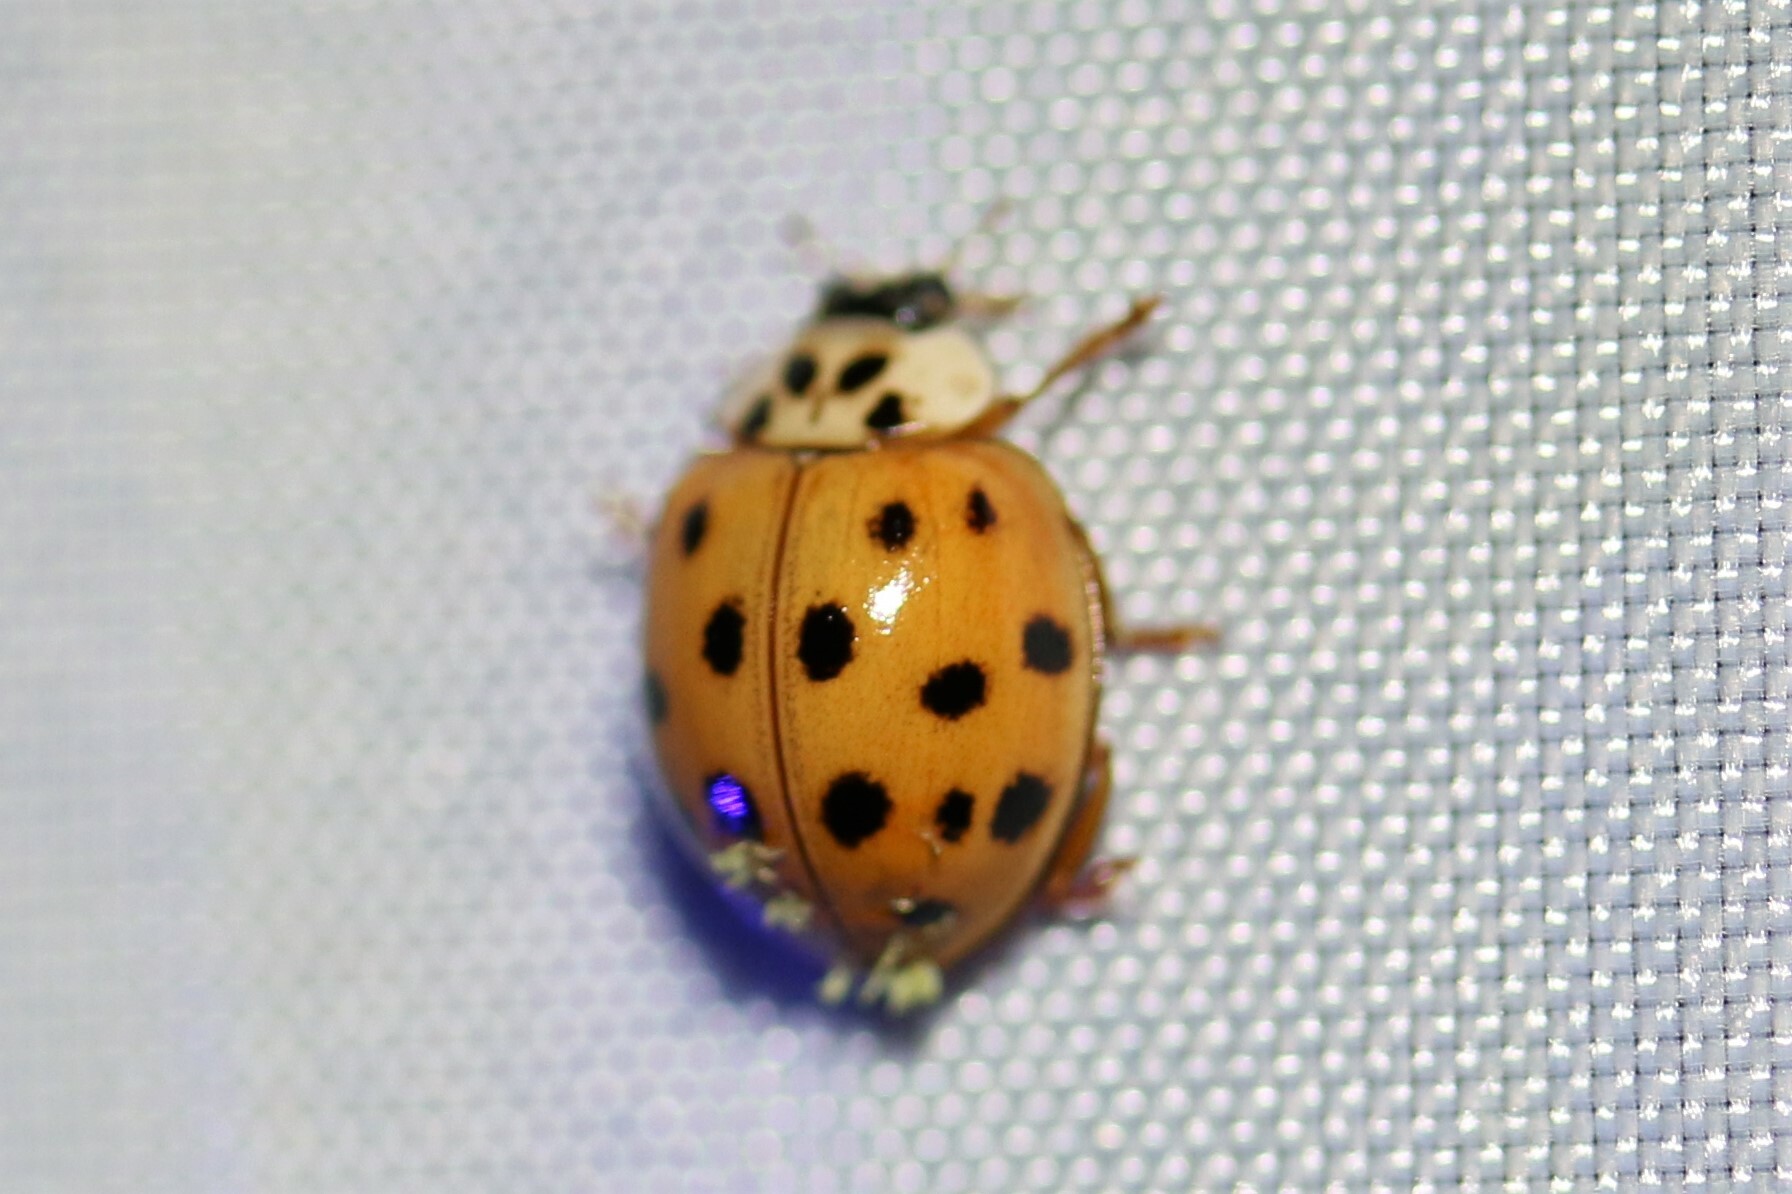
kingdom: Animalia
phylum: Arthropoda
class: Insecta
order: Coleoptera
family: Coccinellidae
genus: Harmonia
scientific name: Harmonia axyridis
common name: Harlequin ladybird
